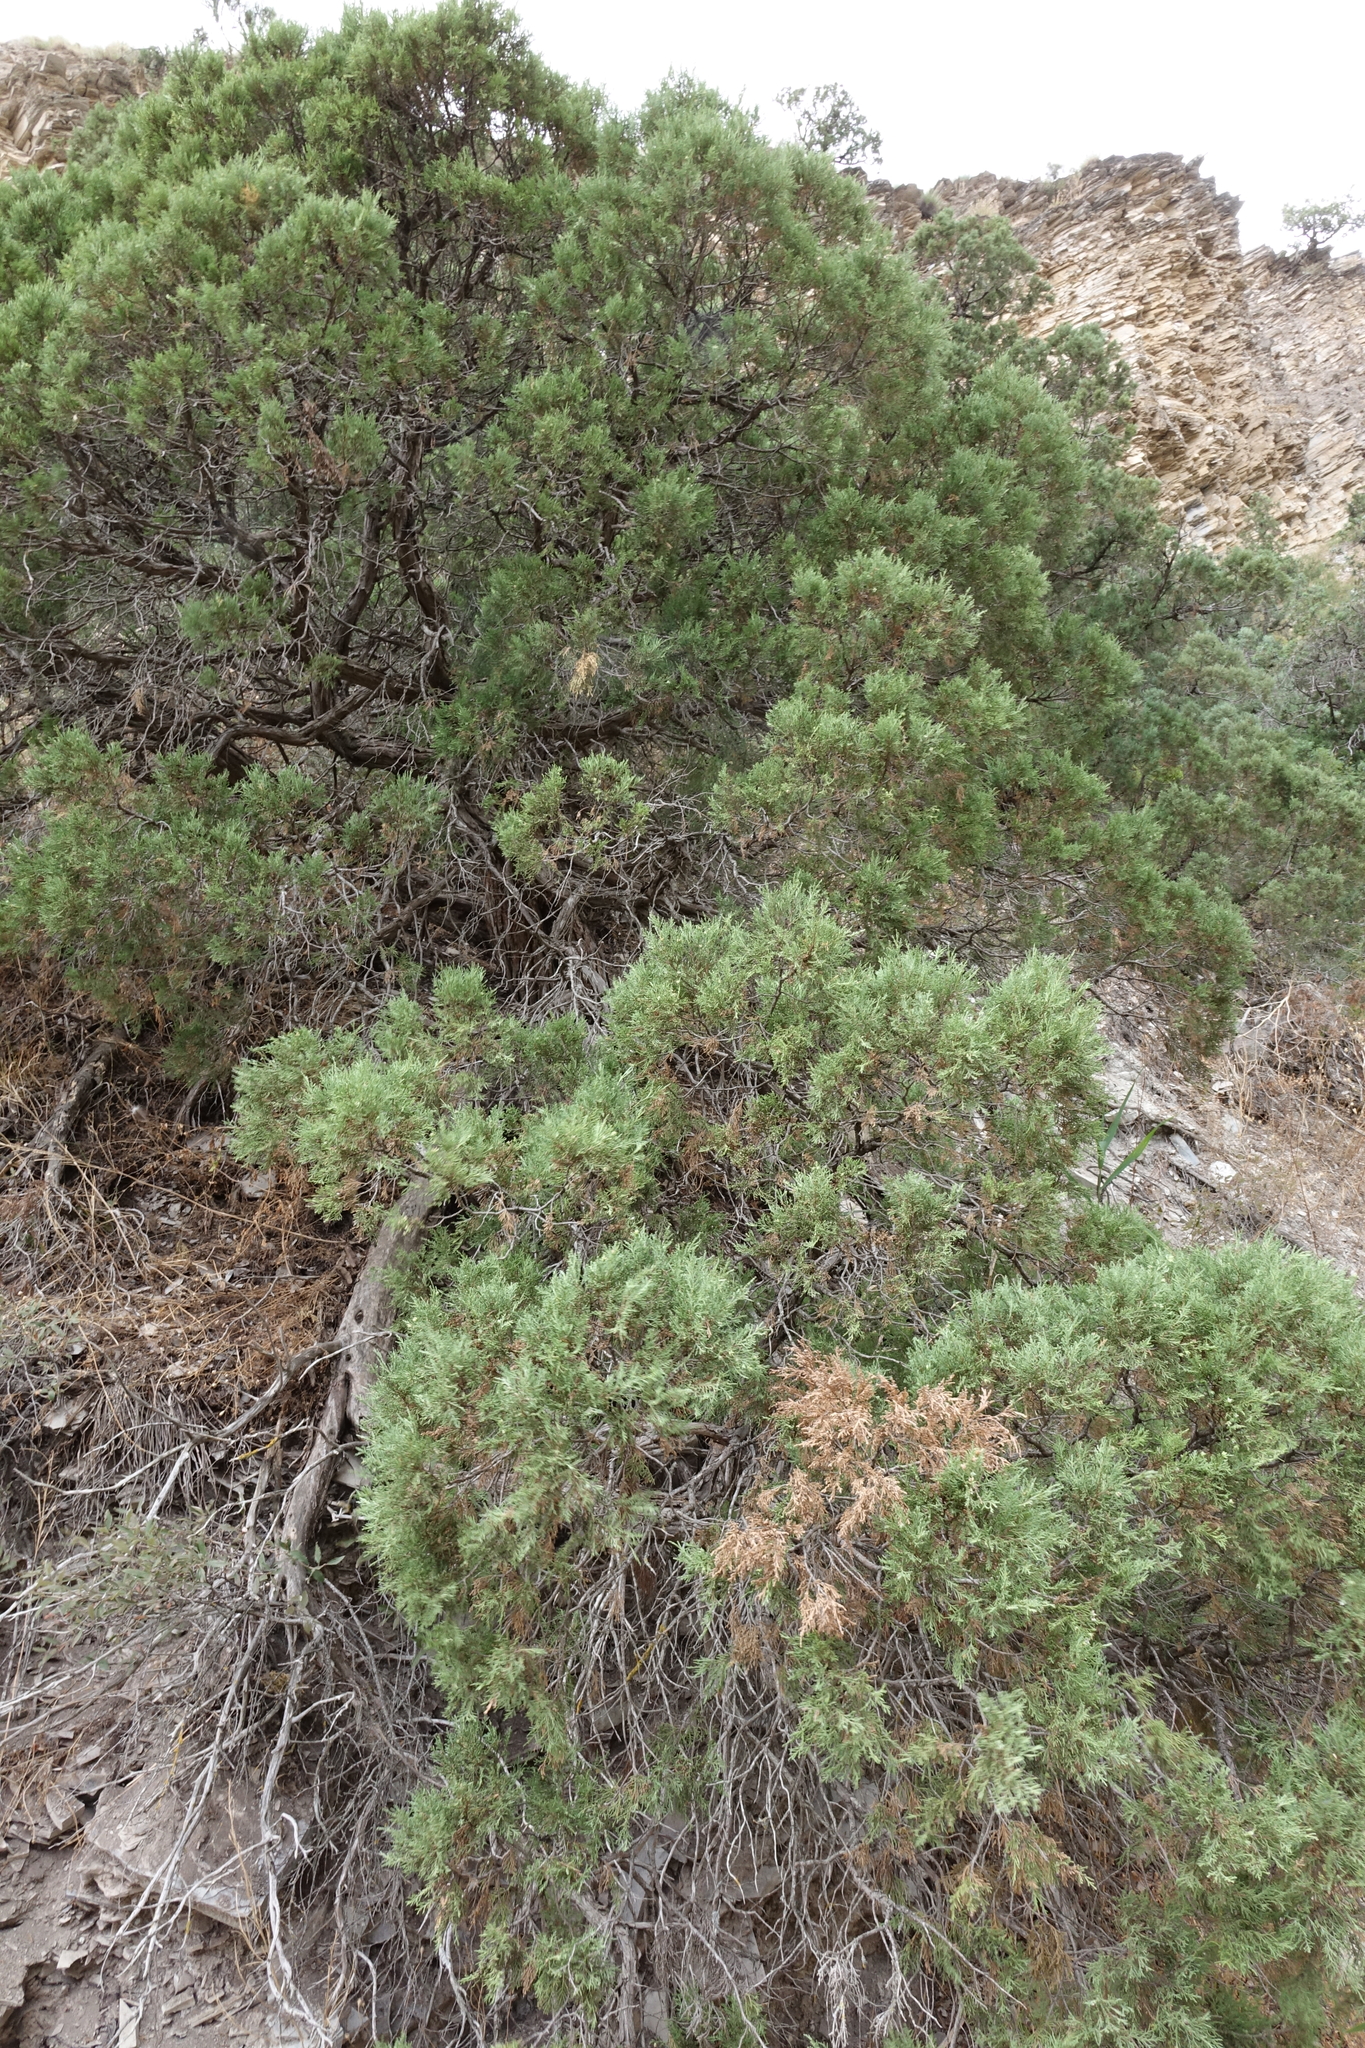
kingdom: Plantae
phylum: Tracheophyta
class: Pinopsida
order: Pinales
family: Cupressaceae
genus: Juniperus
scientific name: Juniperus excelsa
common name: Crimean juniper
